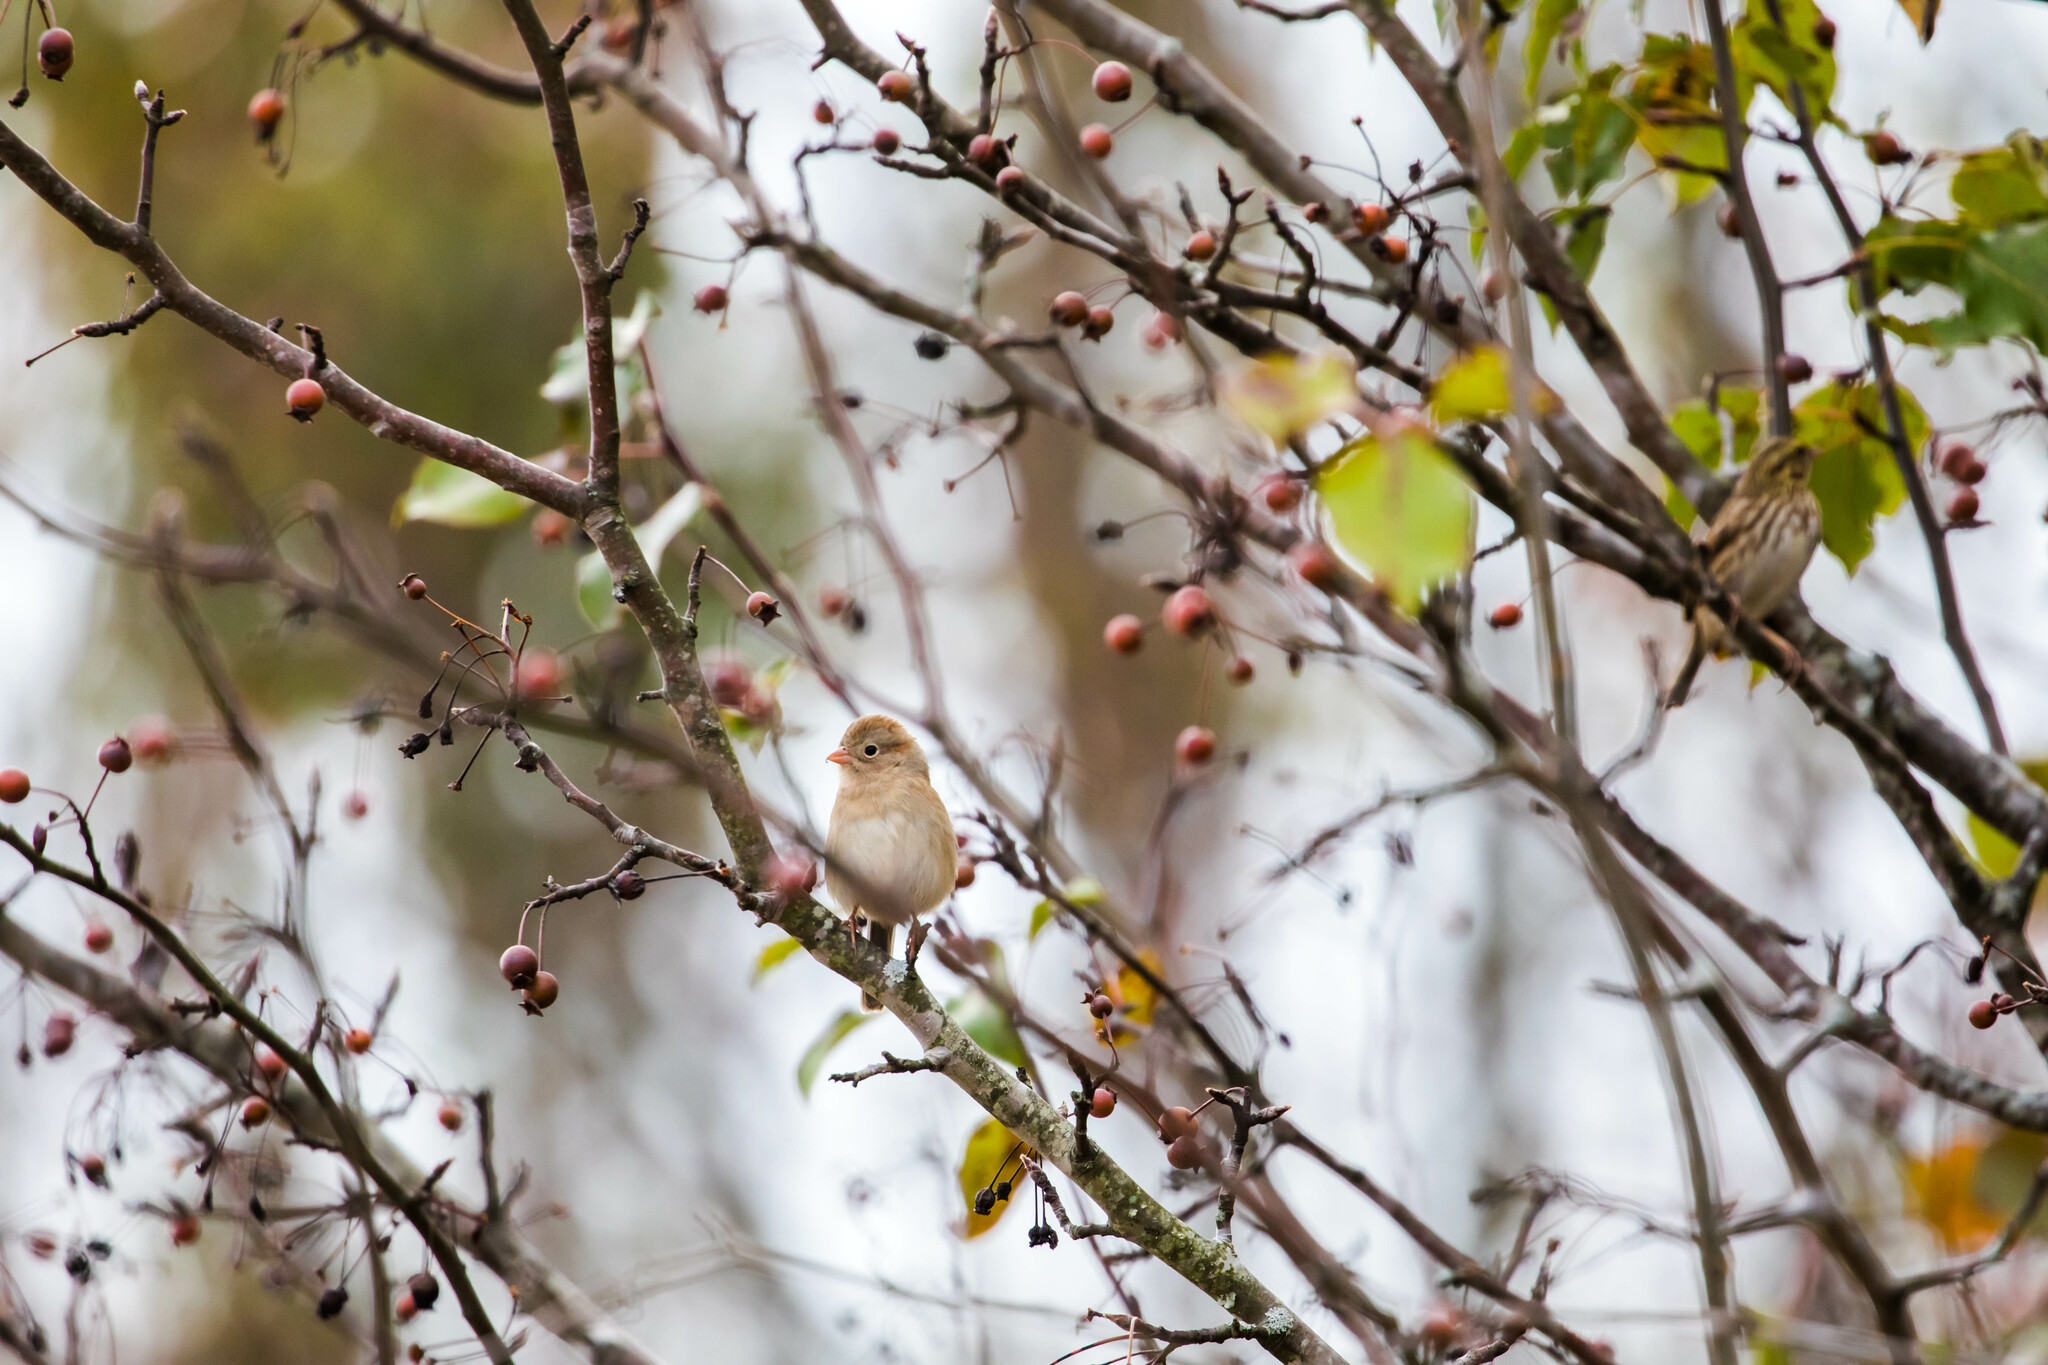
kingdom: Animalia
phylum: Chordata
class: Aves
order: Passeriformes
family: Passerellidae
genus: Spizella
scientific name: Spizella pusilla
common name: Field sparrow
